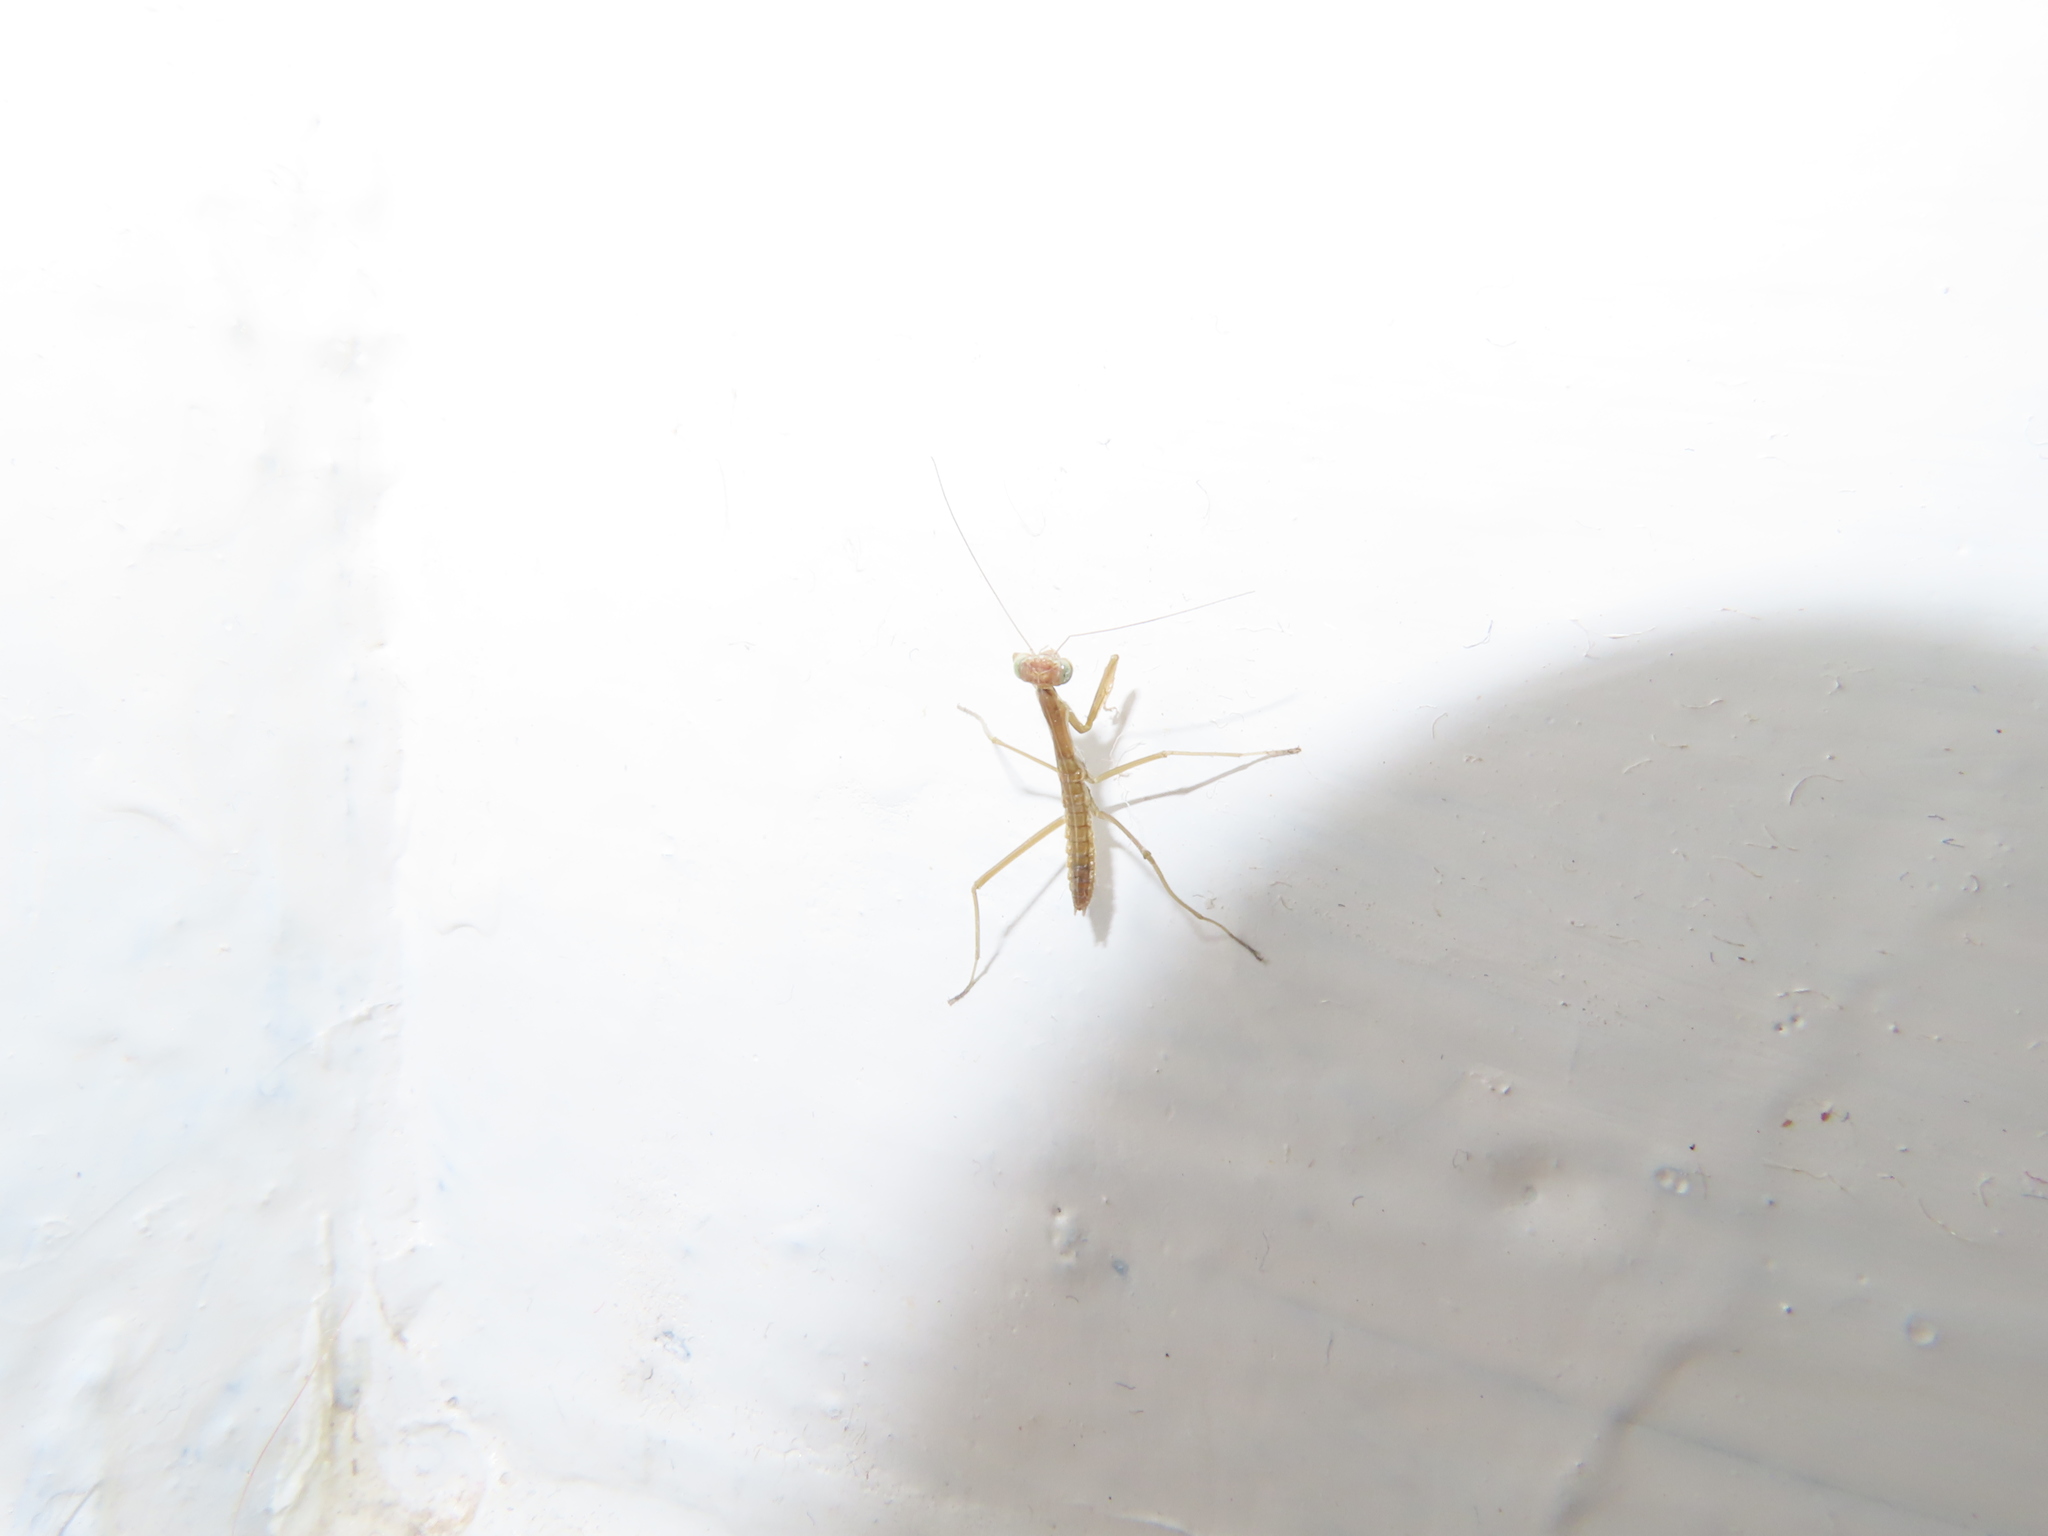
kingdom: Animalia
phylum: Arthropoda
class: Insecta
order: Mantodea
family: Mantidae
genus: Tenodera
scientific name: Tenodera sinensis
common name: Chinese mantis
